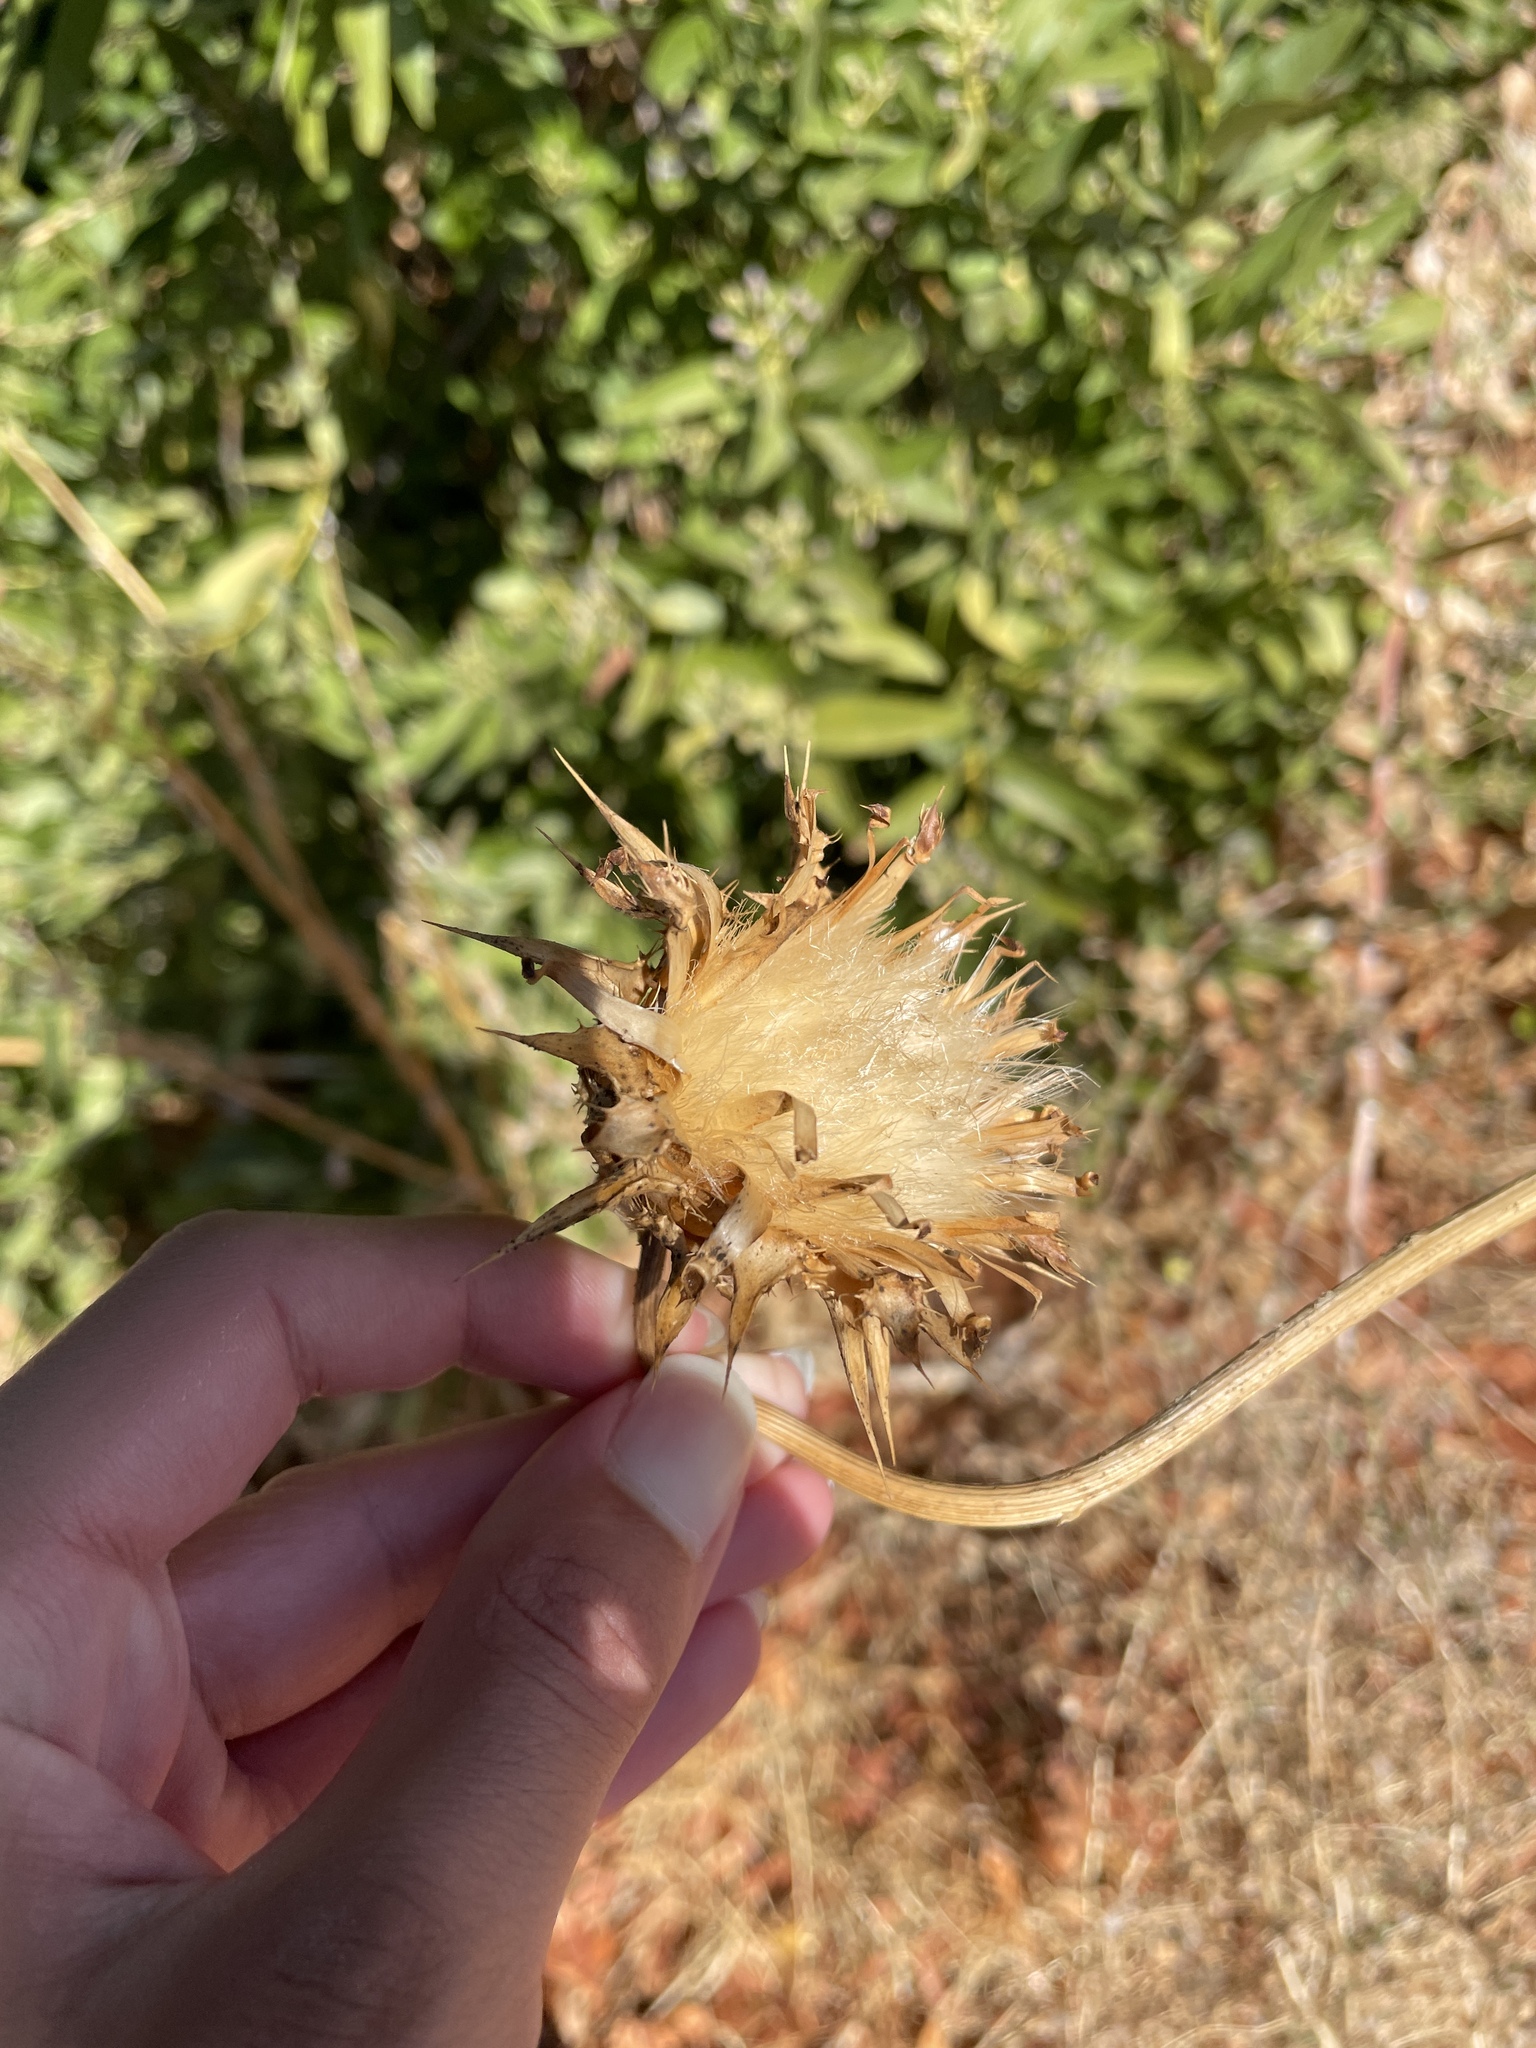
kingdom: Plantae
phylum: Tracheophyta
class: Magnoliopsida
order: Asterales
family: Asteraceae
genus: Silybum
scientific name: Silybum marianum
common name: Milk thistle
